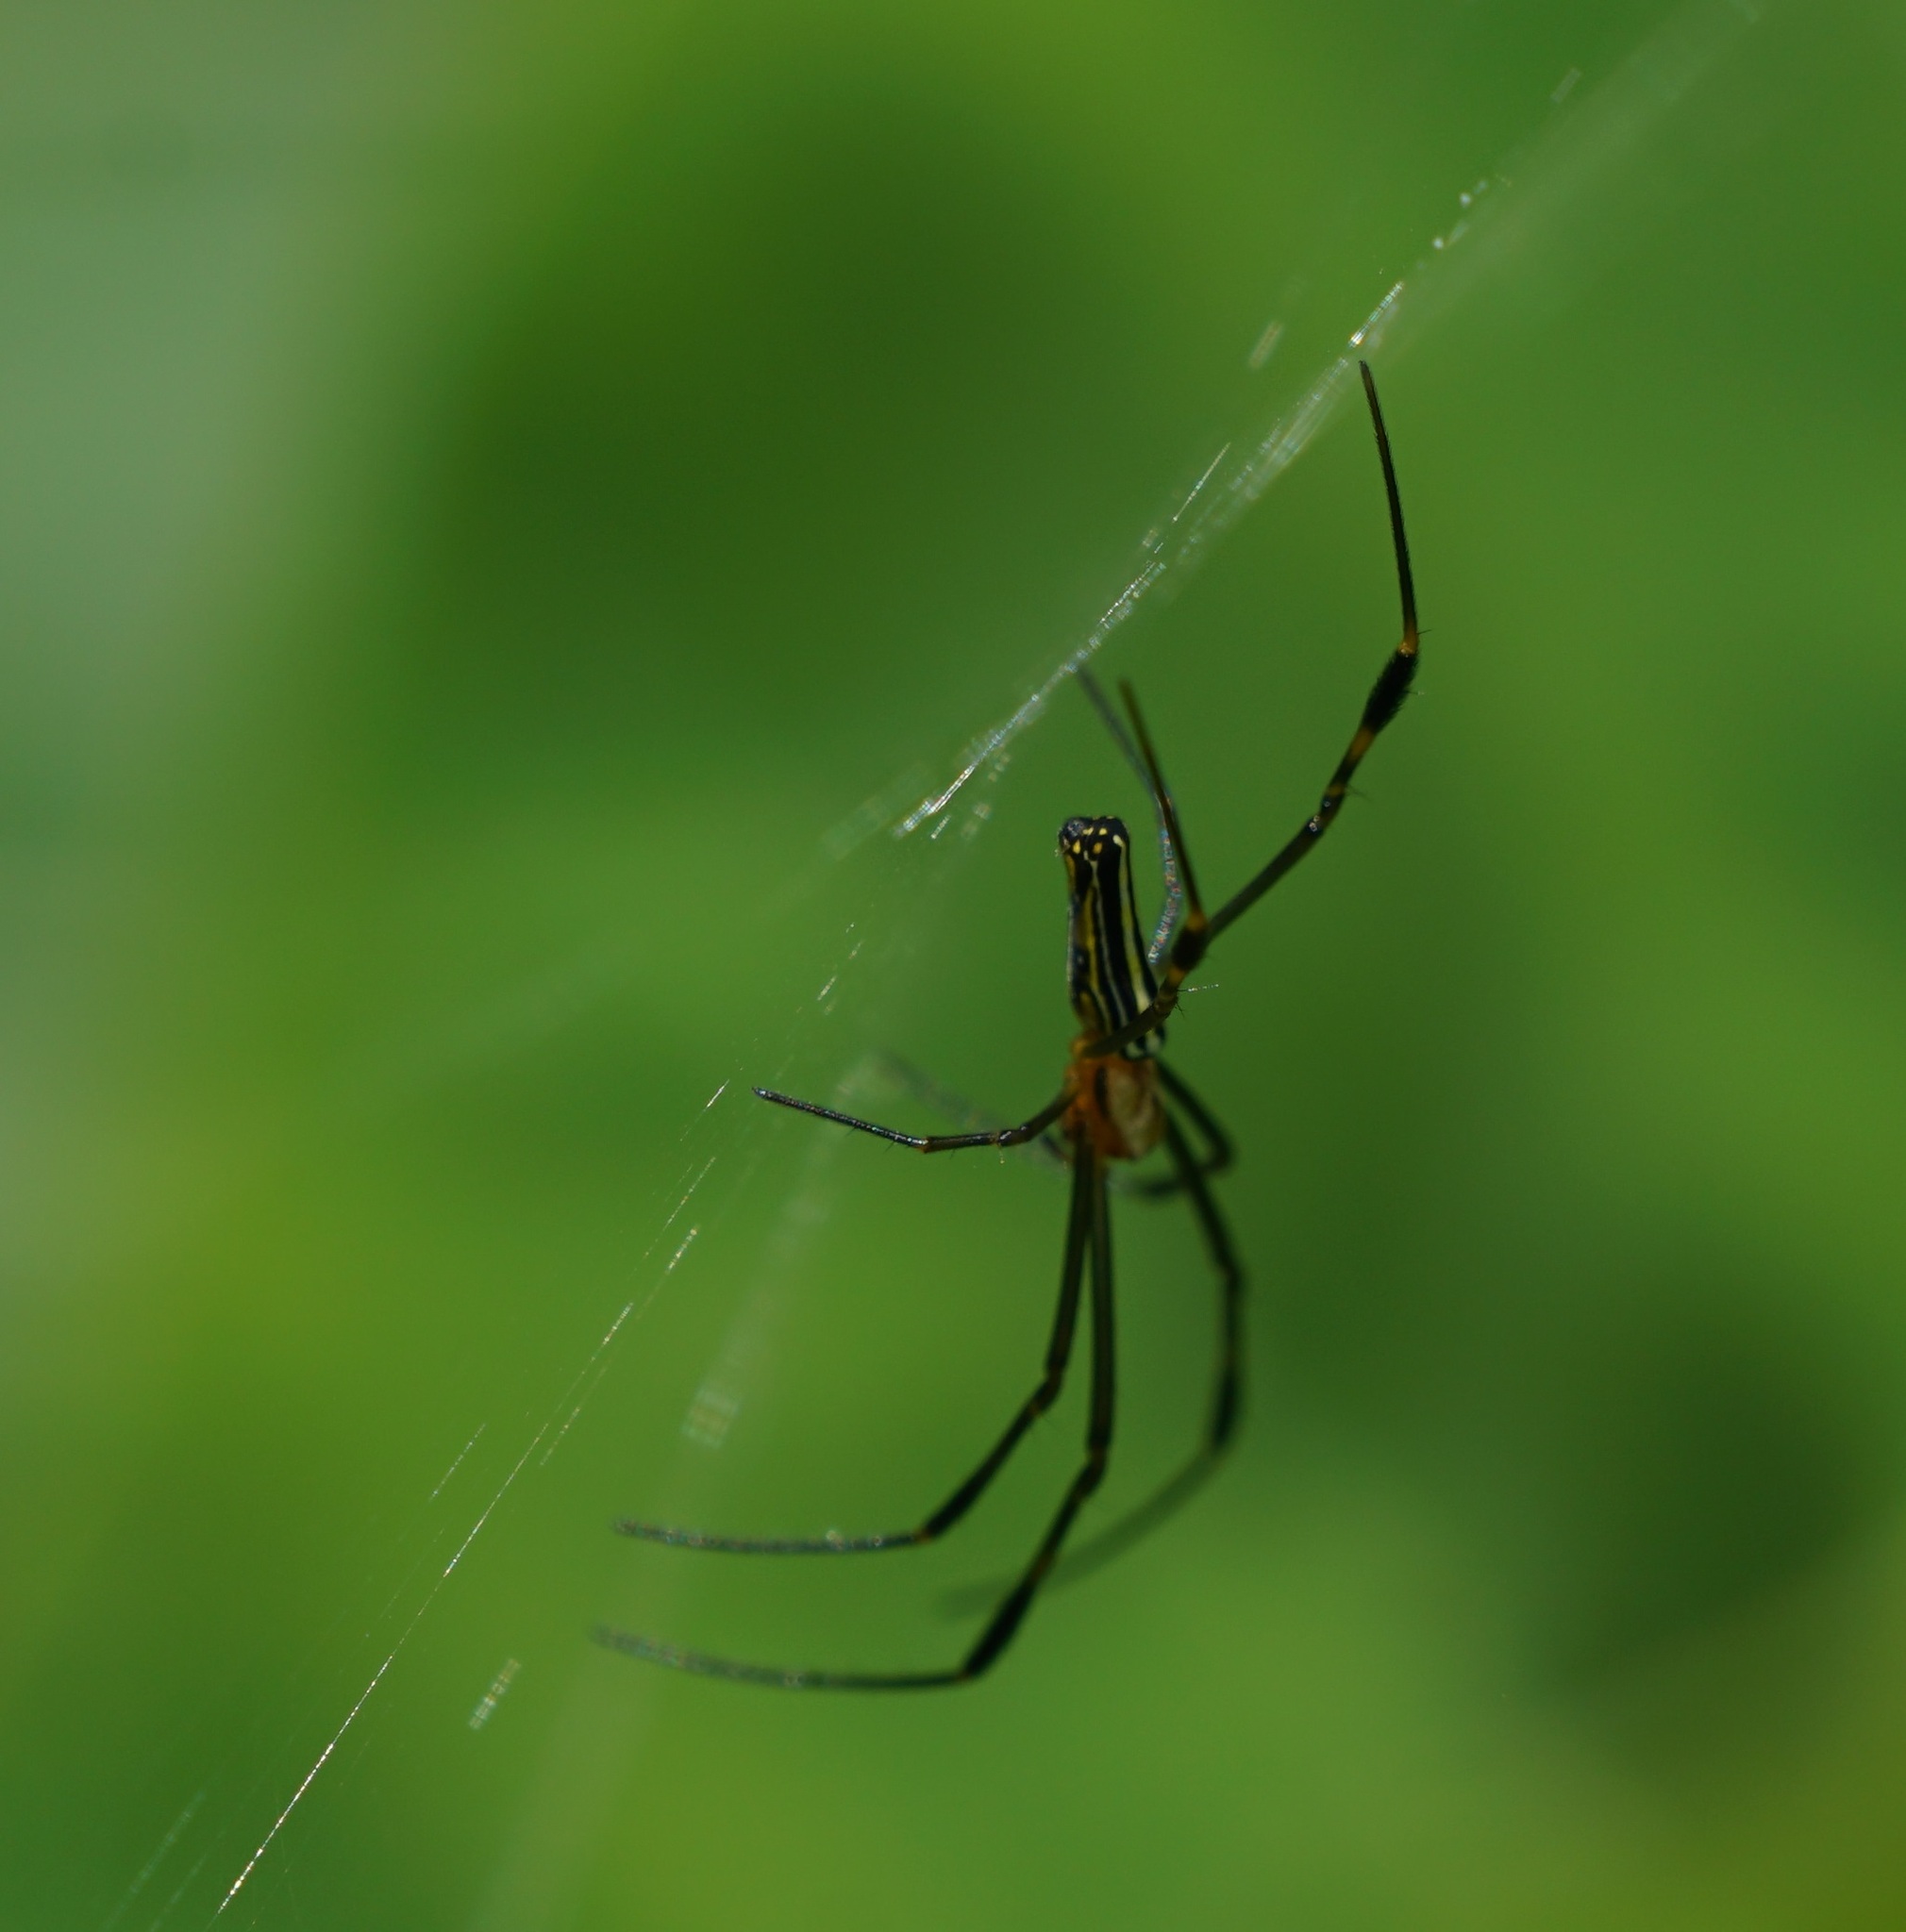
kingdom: Animalia
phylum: Arthropoda
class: Arachnida
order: Araneae
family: Araneidae
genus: Nephila
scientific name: Nephila pilipes
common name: Giant golden orb weaver
